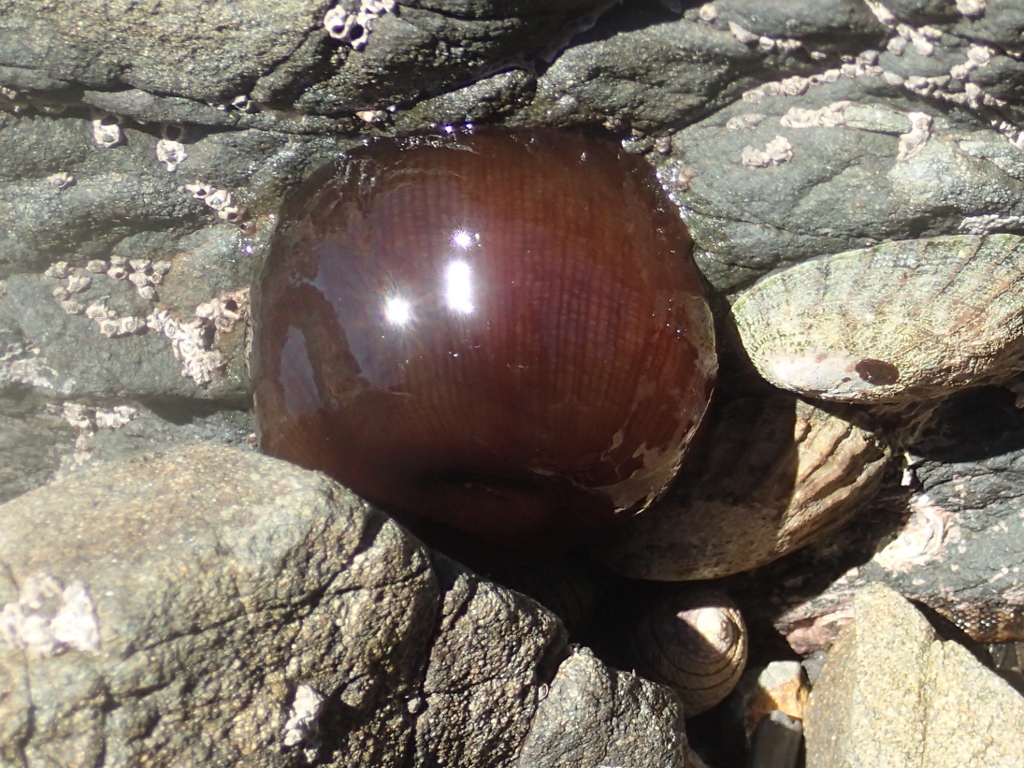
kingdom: Animalia
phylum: Cnidaria
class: Anthozoa
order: Actiniaria
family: Actiniidae
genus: Actinia
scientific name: Actinia tenebrosa
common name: Waratah anemone
